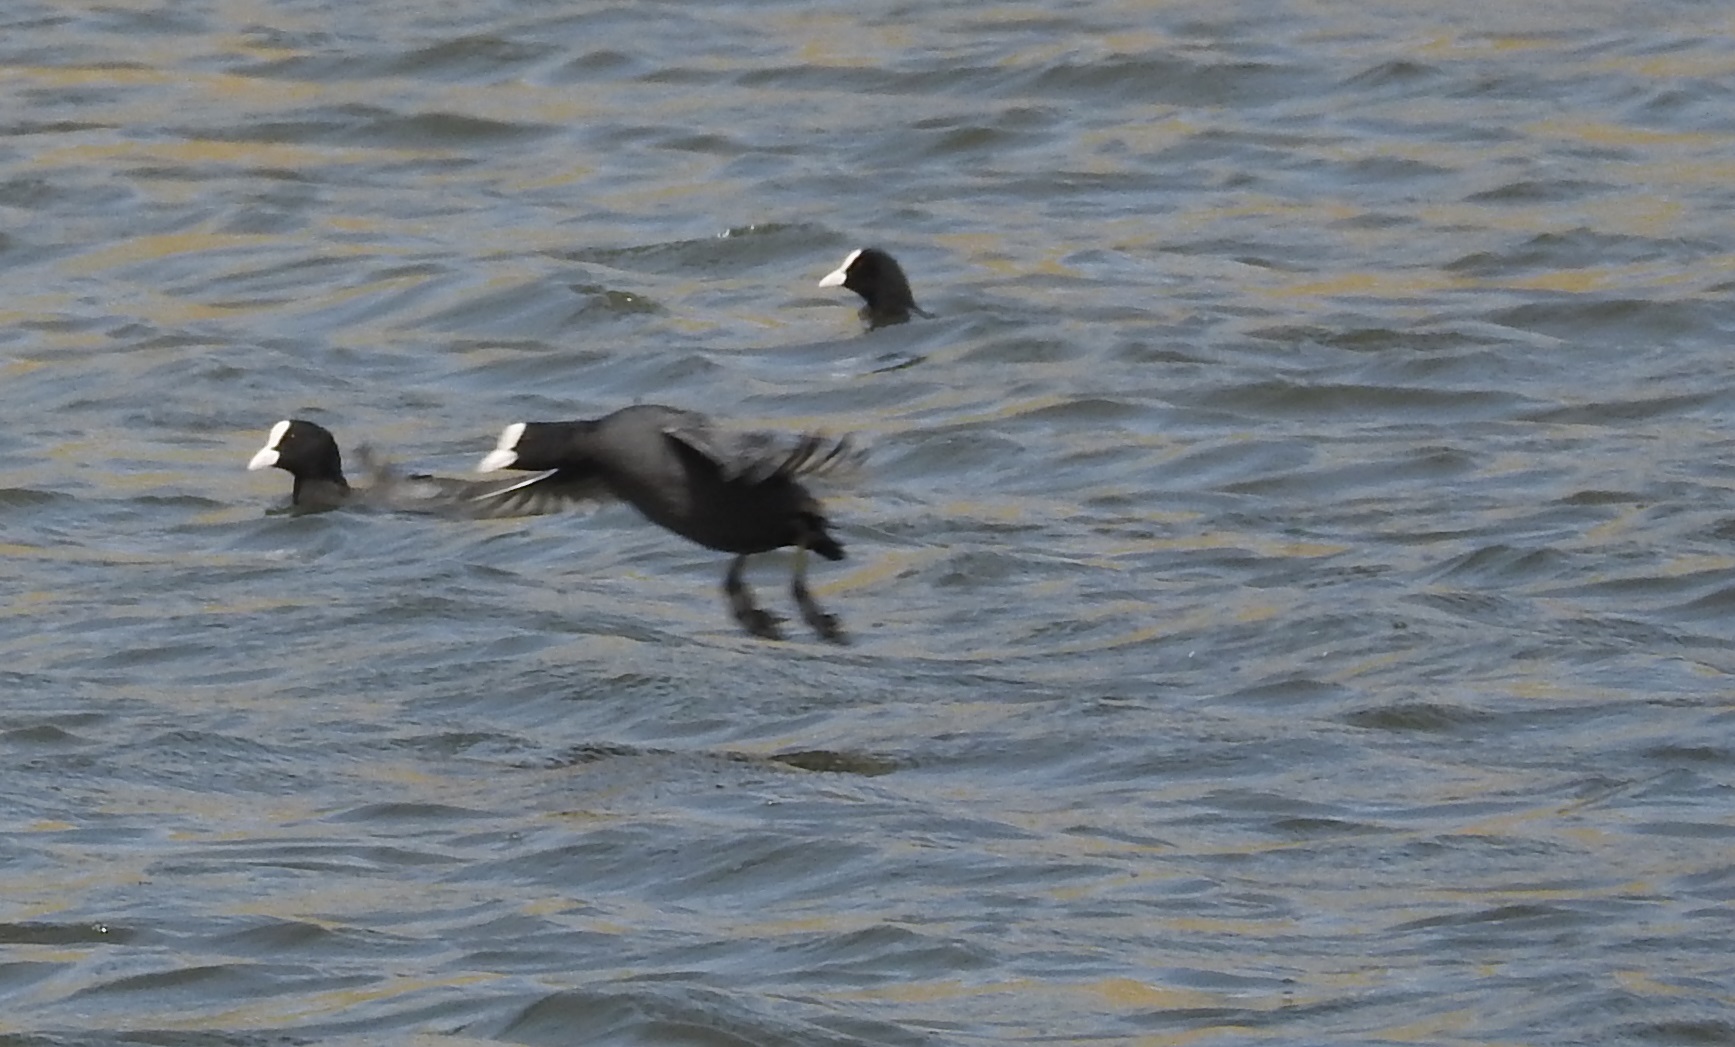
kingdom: Animalia
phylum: Chordata
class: Aves
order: Gruiformes
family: Rallidae
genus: Fulica
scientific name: Fulica atra
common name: Eurasian coot
